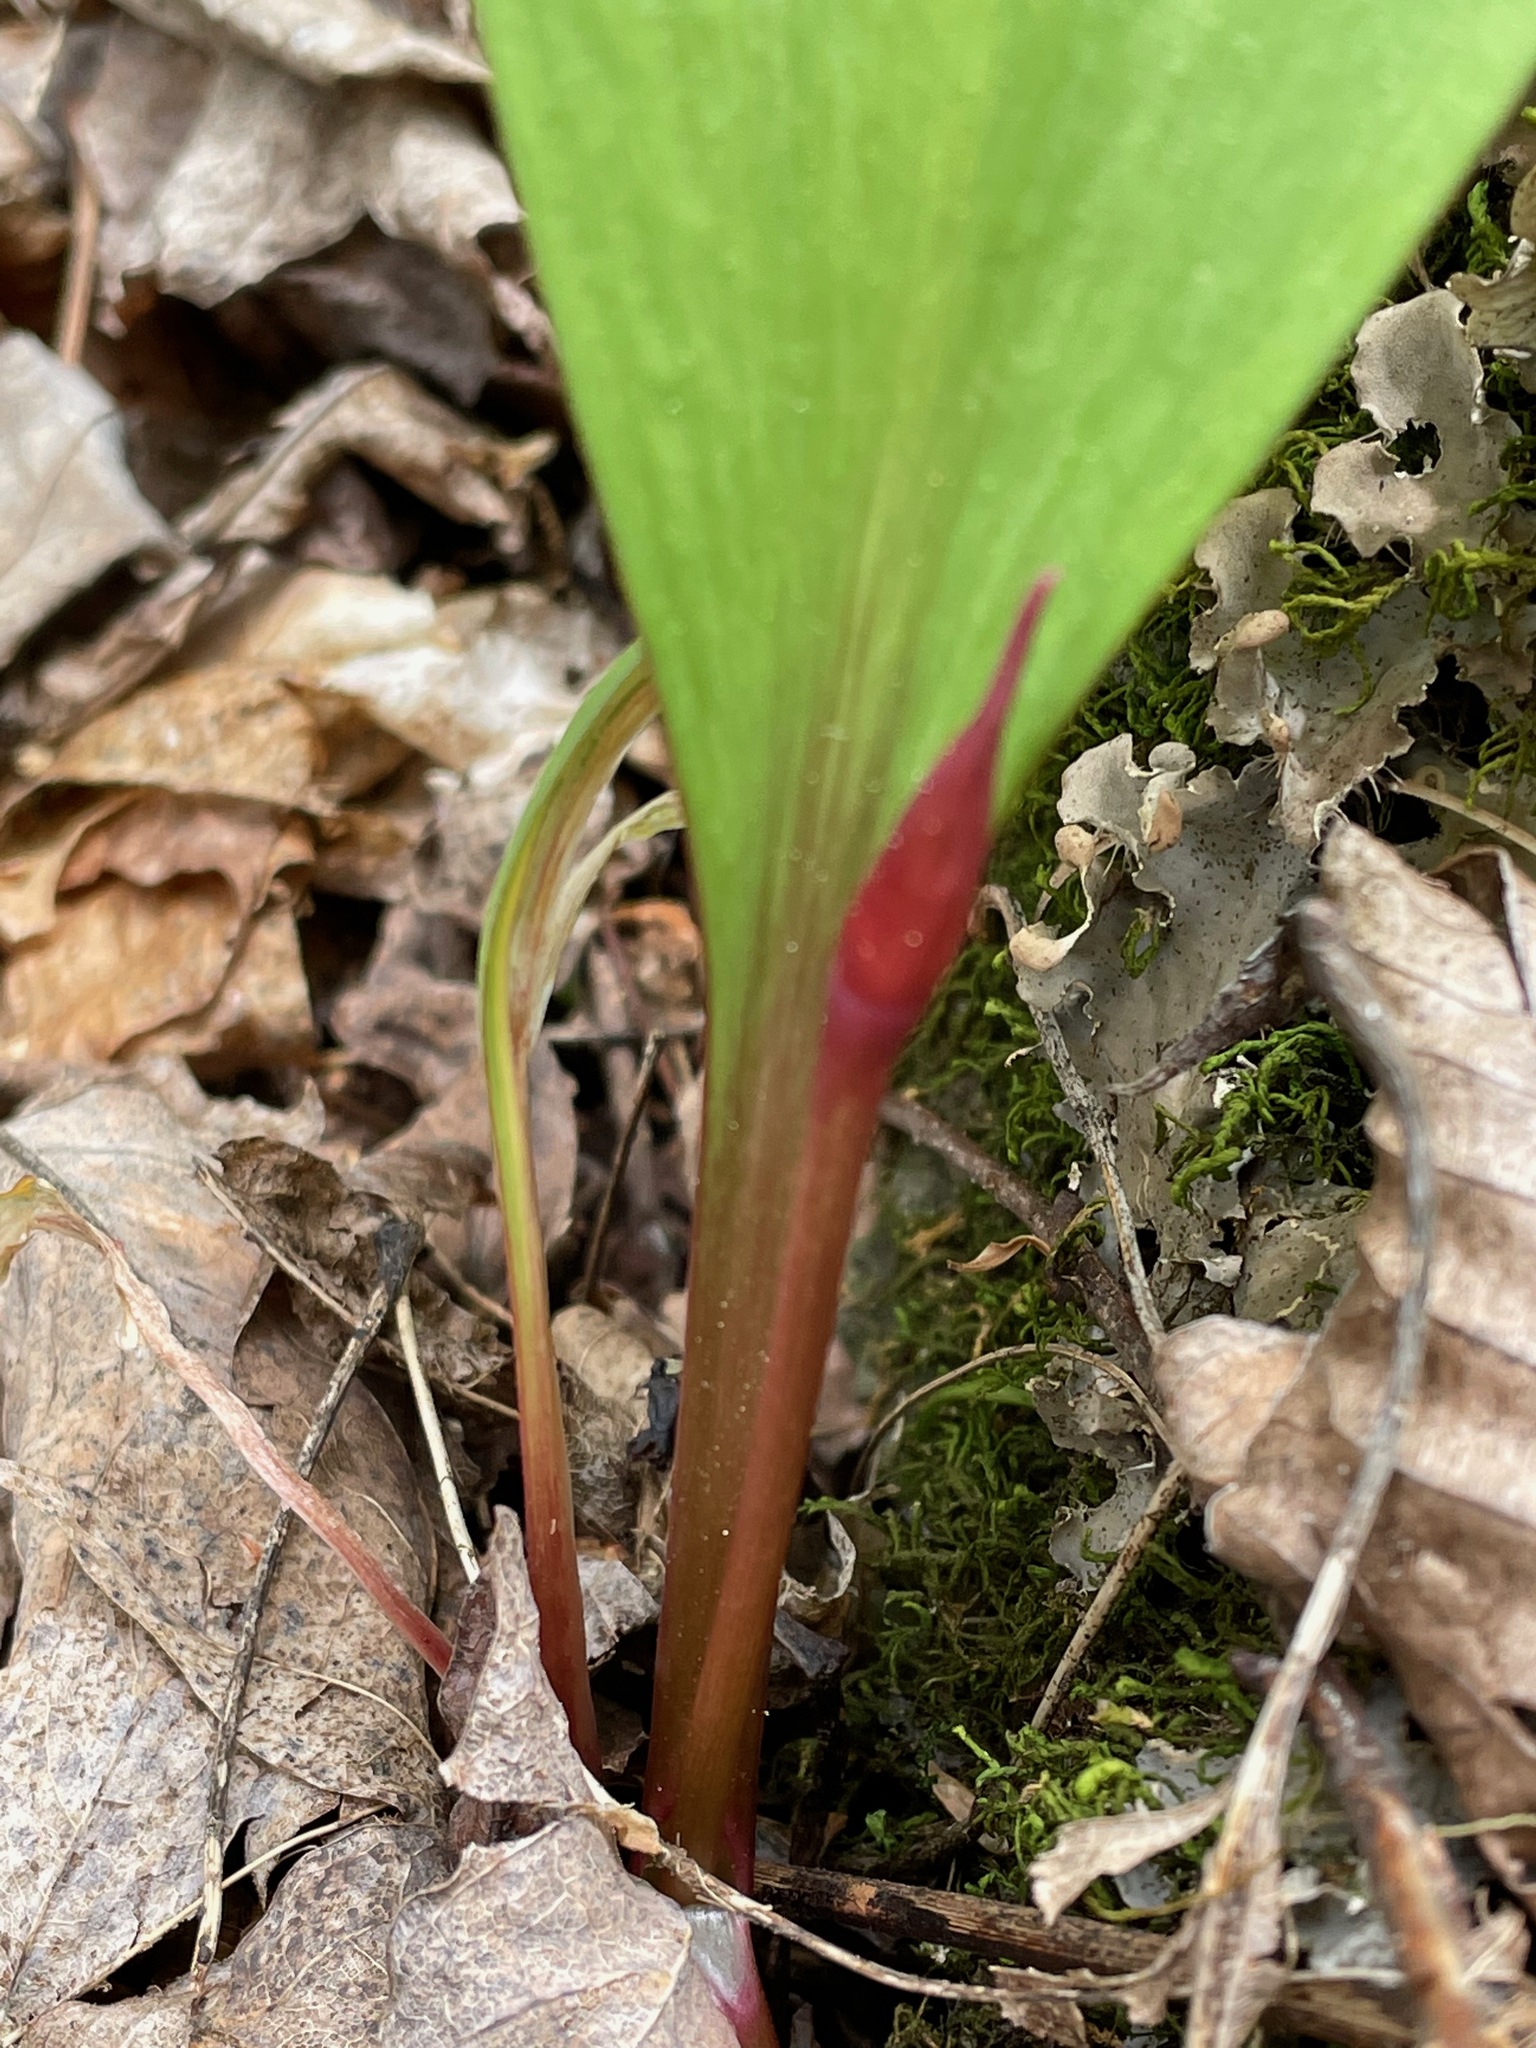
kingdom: Plantae
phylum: Tracheophyta
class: Liliopsida
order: Asparagales
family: Amaryllidaceae
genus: Allium
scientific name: Allium tricoccum
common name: Ramp
